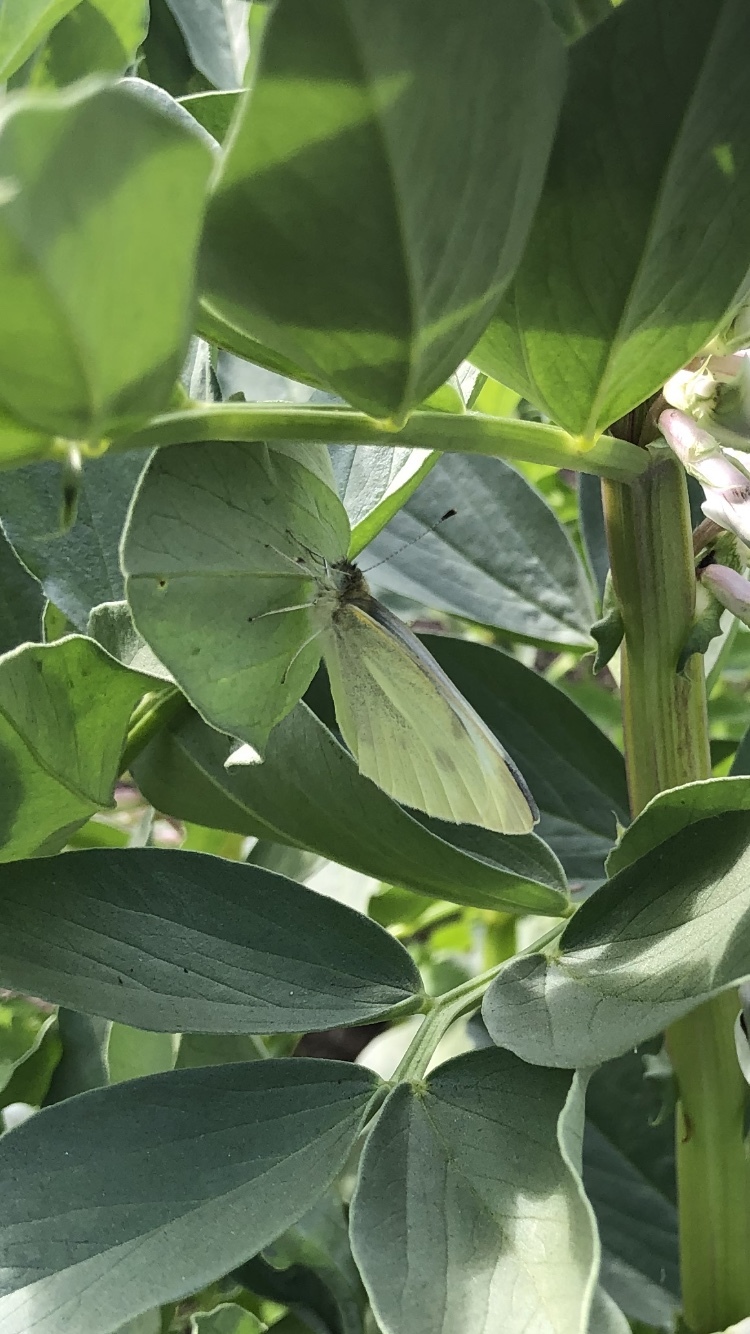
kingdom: Animalia
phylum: Arthropoda
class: Insecta
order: Lepidoptera
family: Pieridae
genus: Pieris
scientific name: Pieris rapae
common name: Small white
